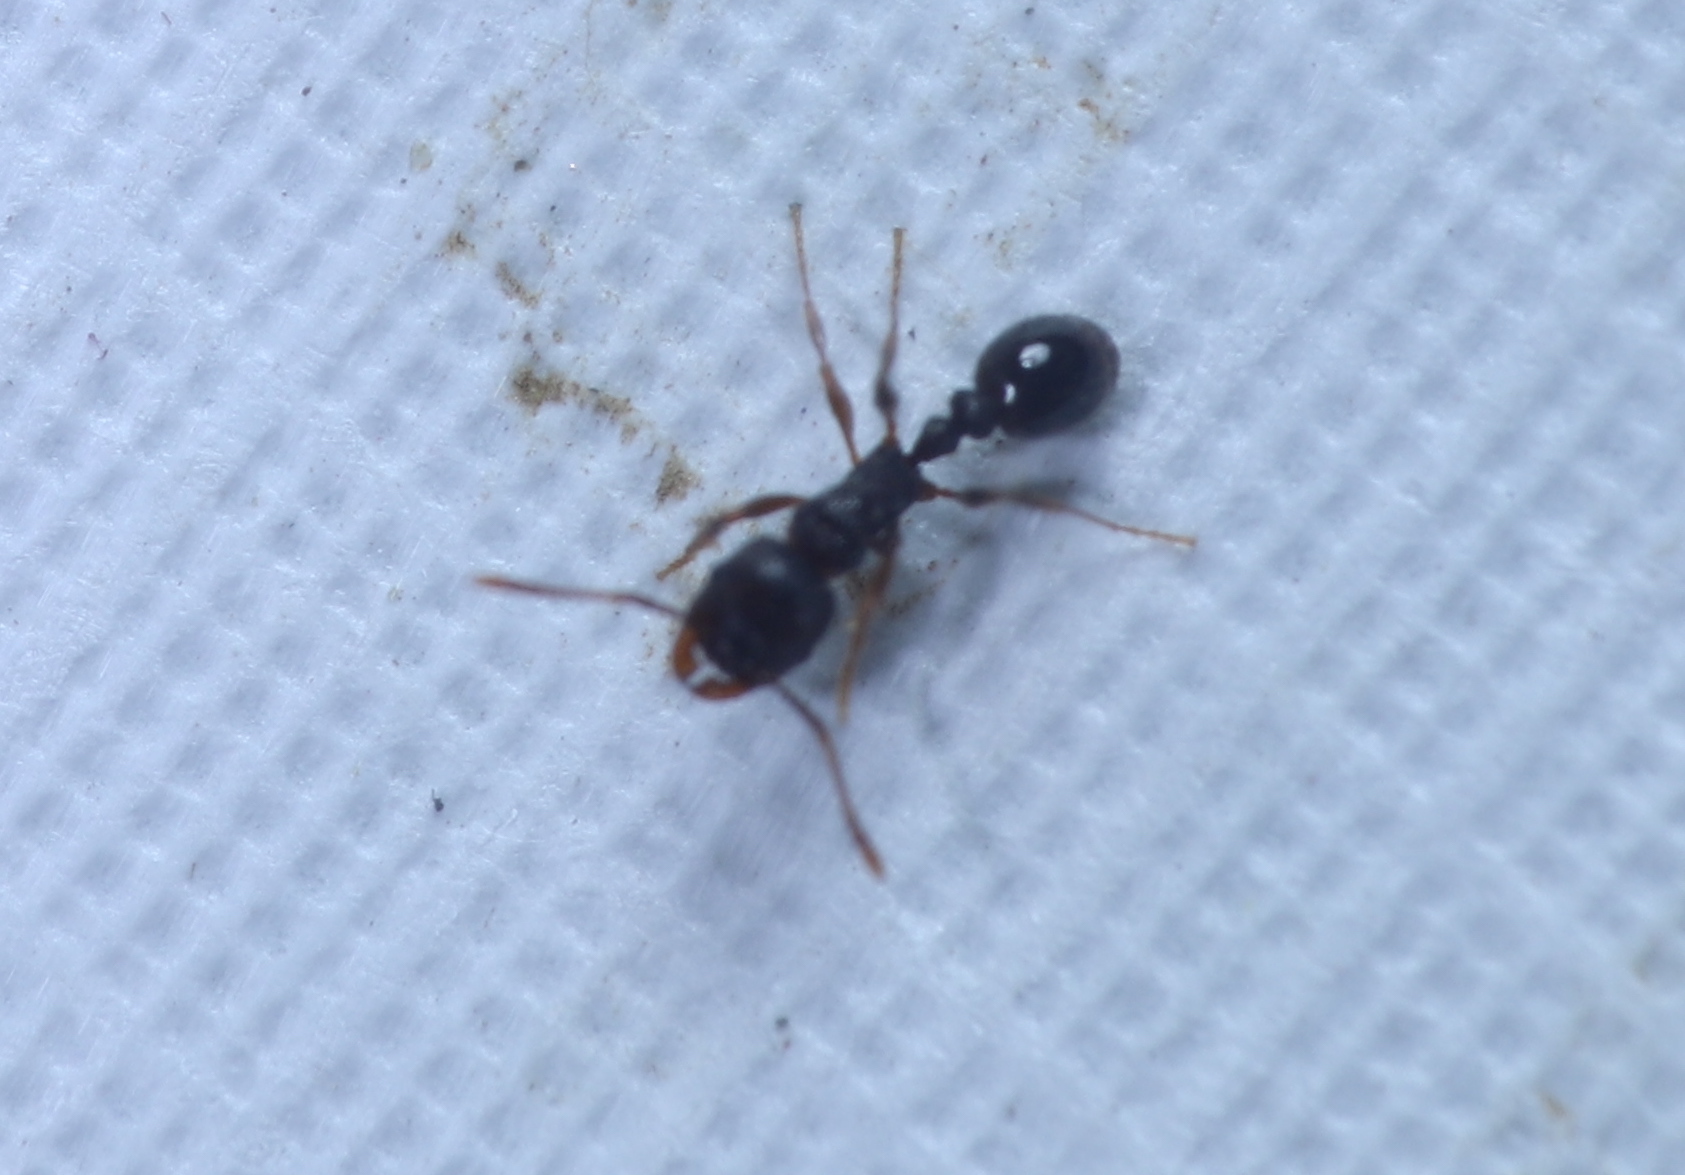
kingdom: Animalia
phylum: Arthropoda
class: Insecta
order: Hymenoptera
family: Formicidae
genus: Tetramorium
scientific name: Tetramorium immigrans
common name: Pavement ant
